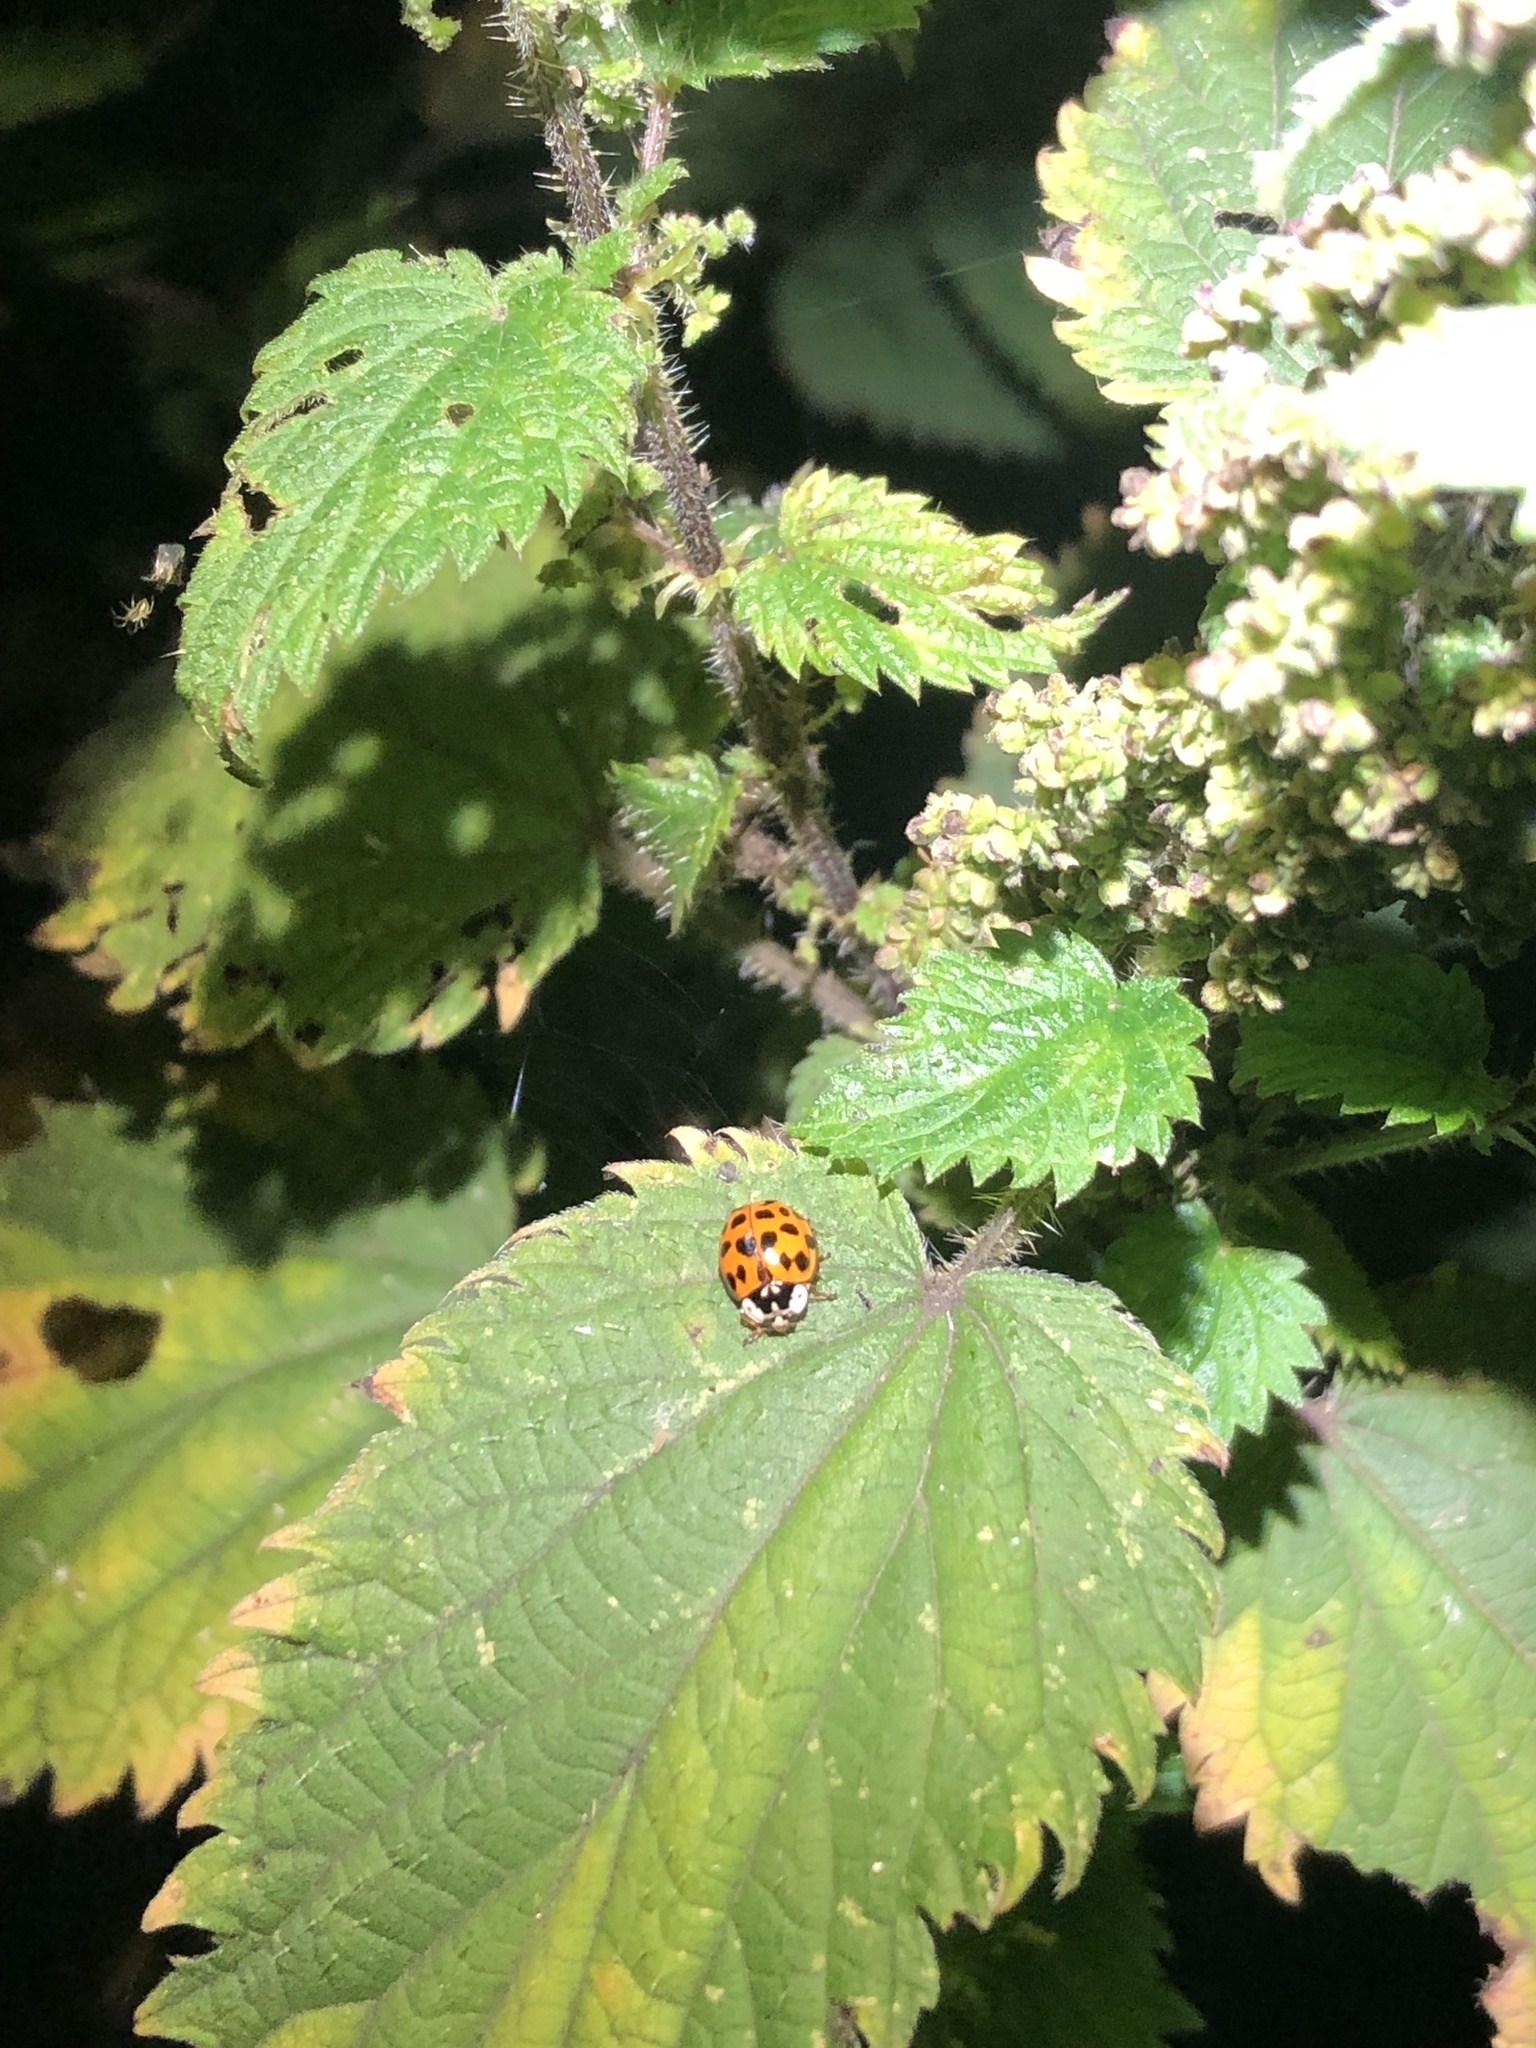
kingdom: Animalia
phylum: Arthropoda
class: Insecta
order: Coleoptera
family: Coccinellidae
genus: Harmonia
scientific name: Harmonia axyridis
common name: Harlequin ladybird
